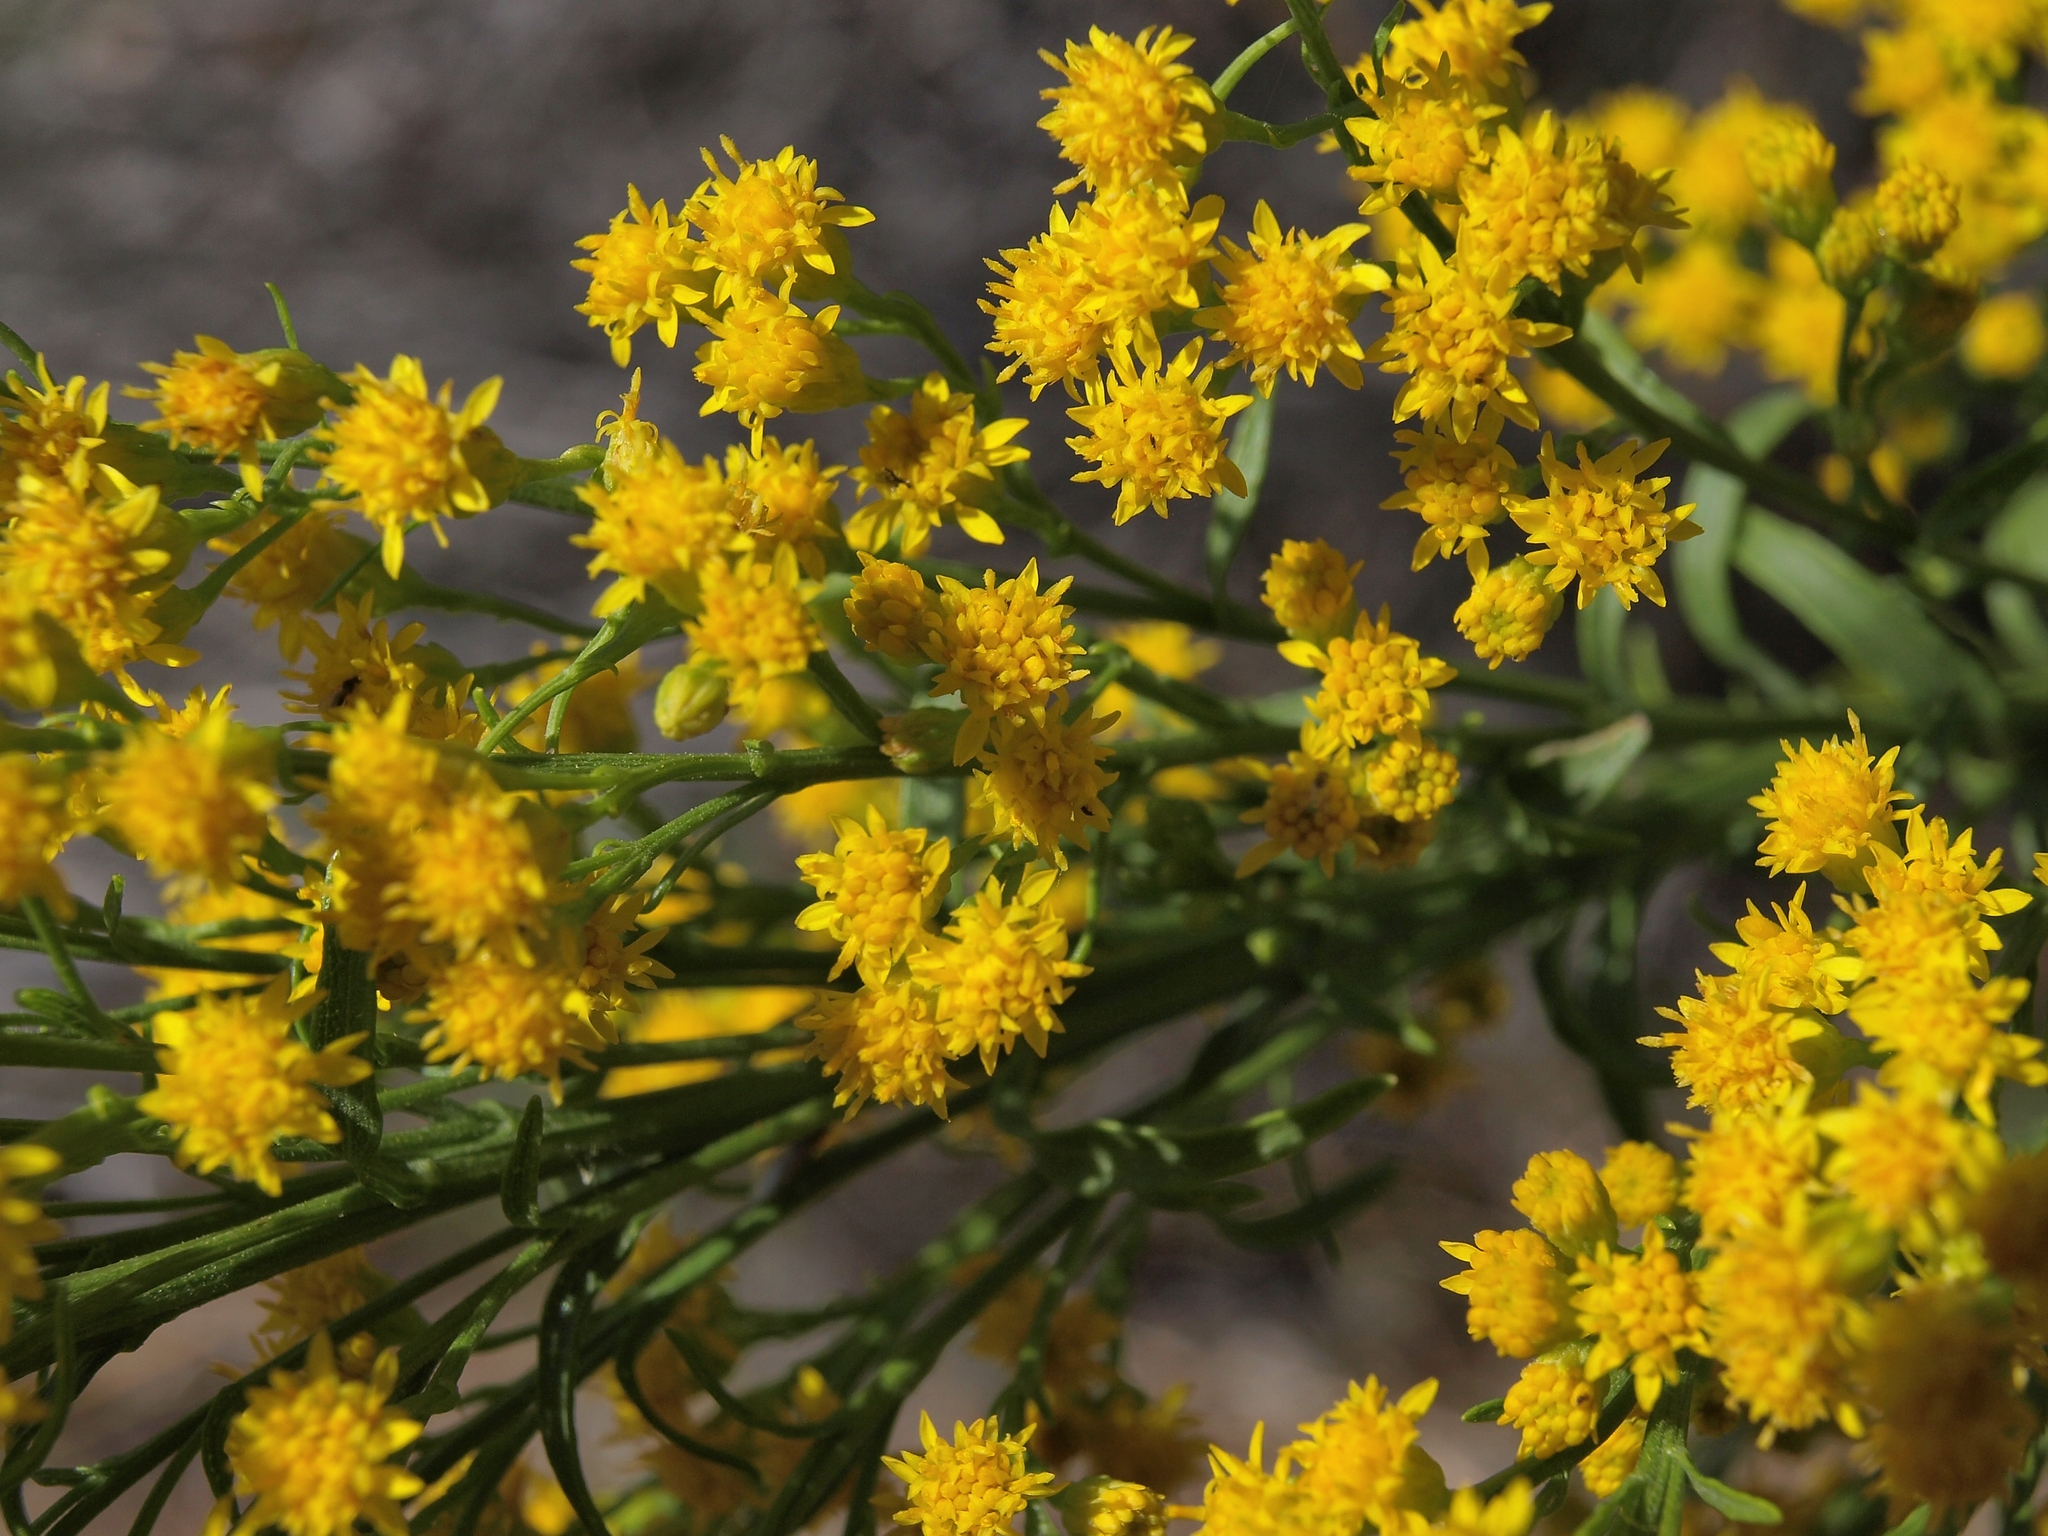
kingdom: Plantae
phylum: Tracheophyta
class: Magnoliopsida
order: Asterales
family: Asteraceae
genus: Solidago
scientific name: Solidago spectabilis
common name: Basin goldenrod
